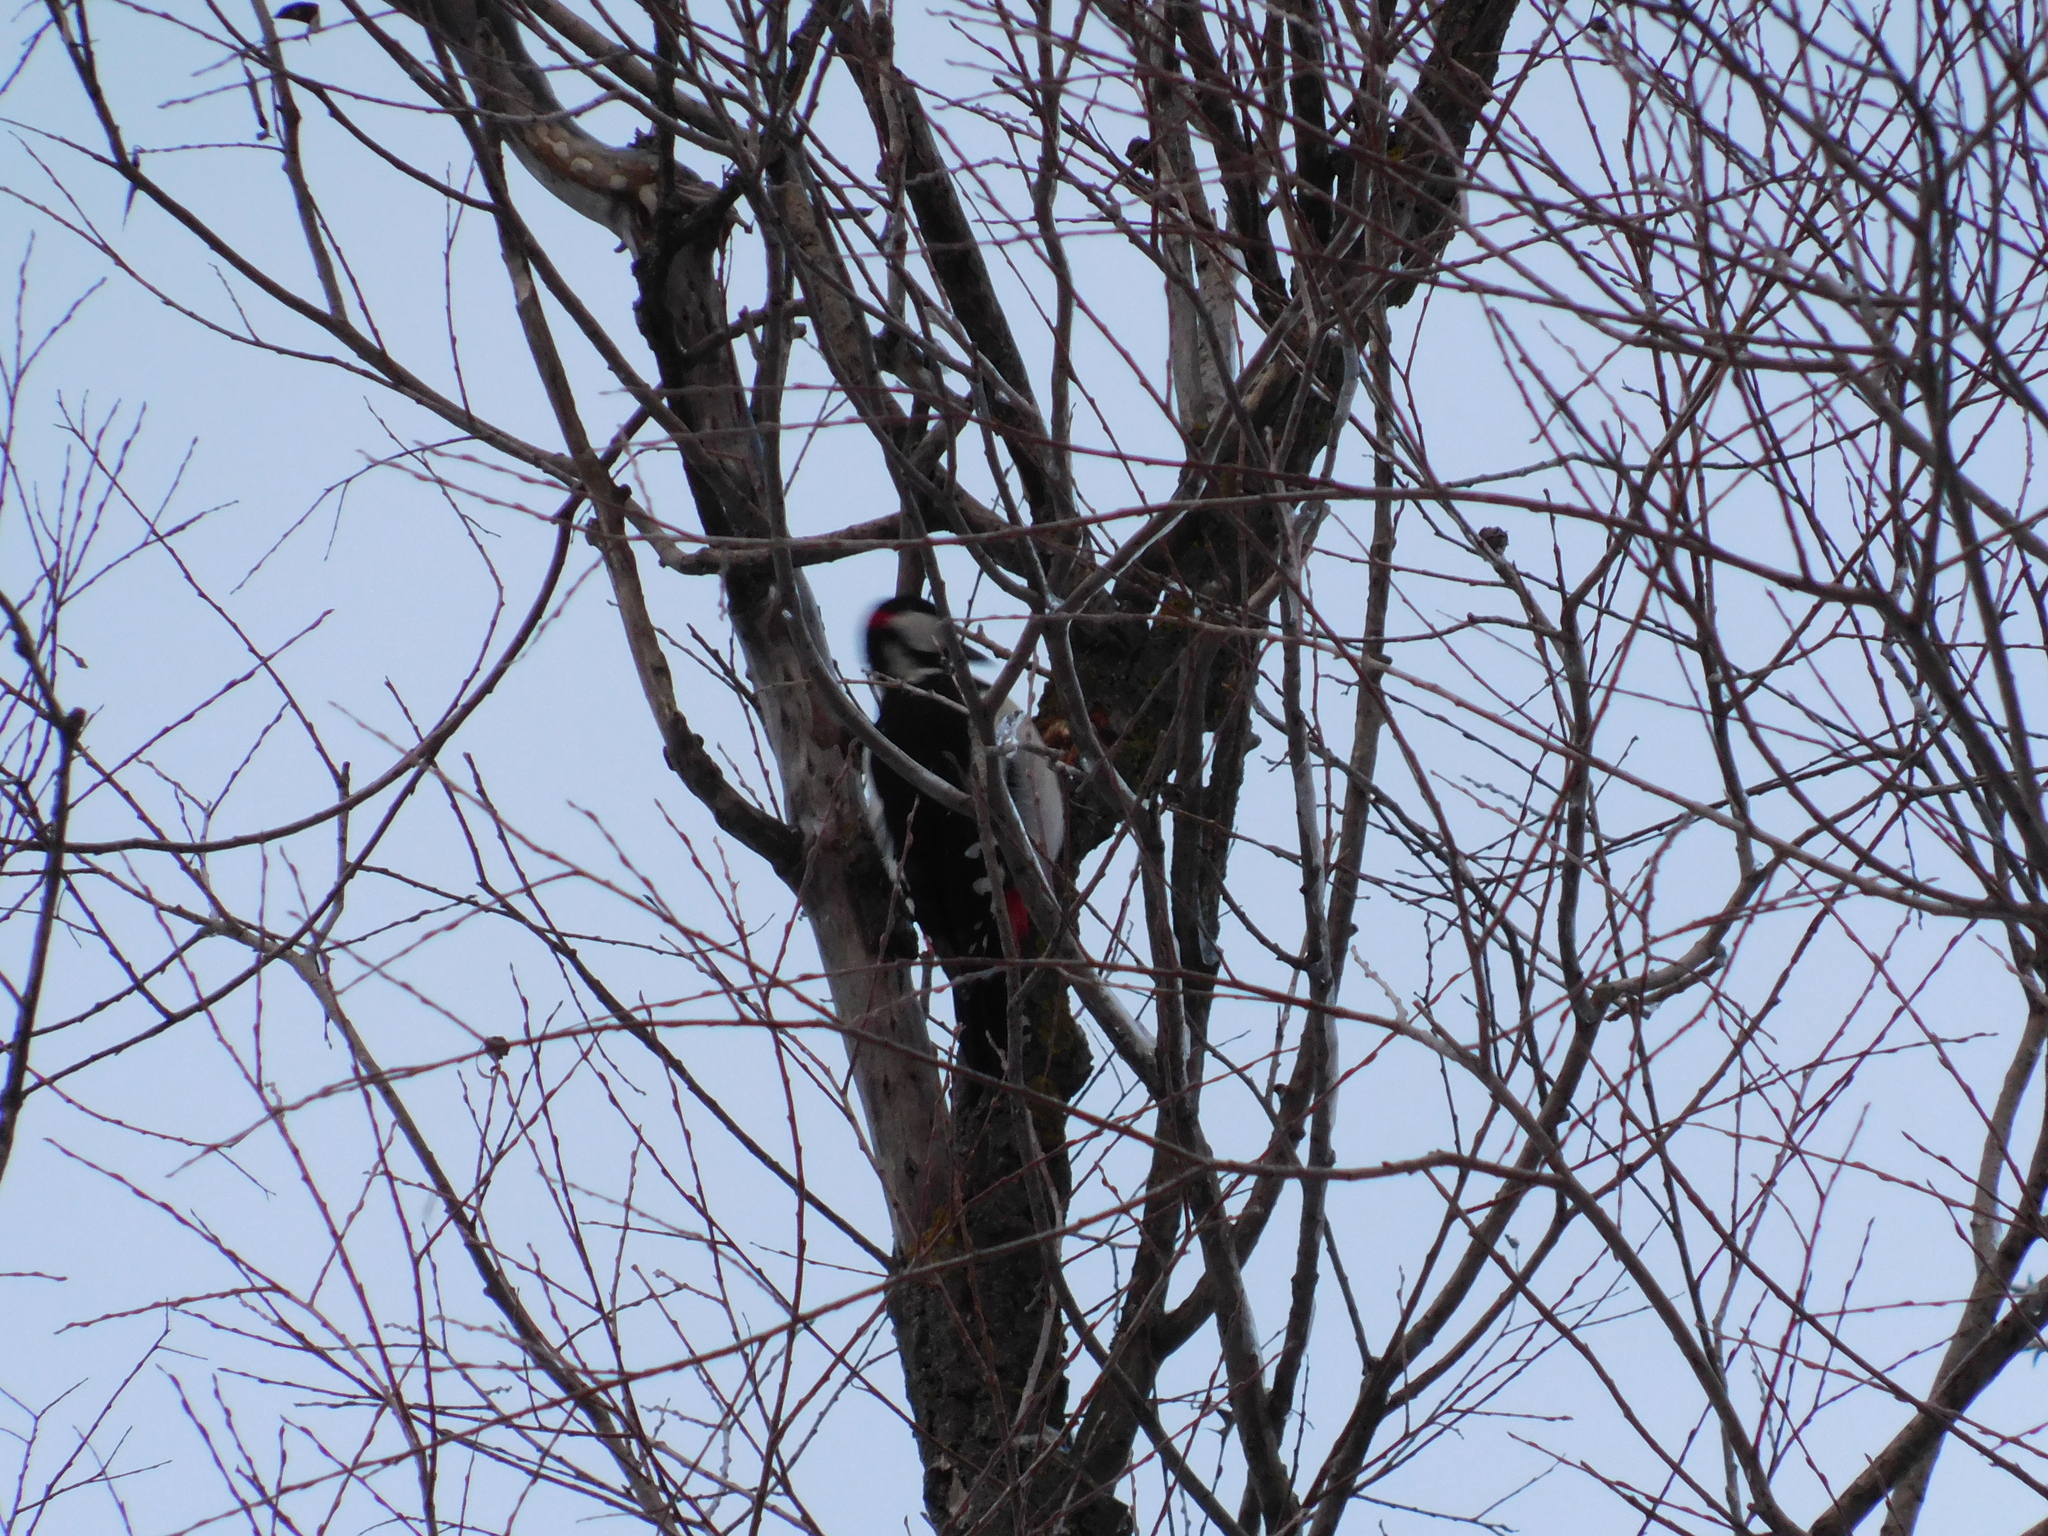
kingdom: Animalia
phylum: Chordata
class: Aves
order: Piciformes
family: Picidae
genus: Dendrocopos
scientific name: Dendrocopos major
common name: Great spotted woodpecker
